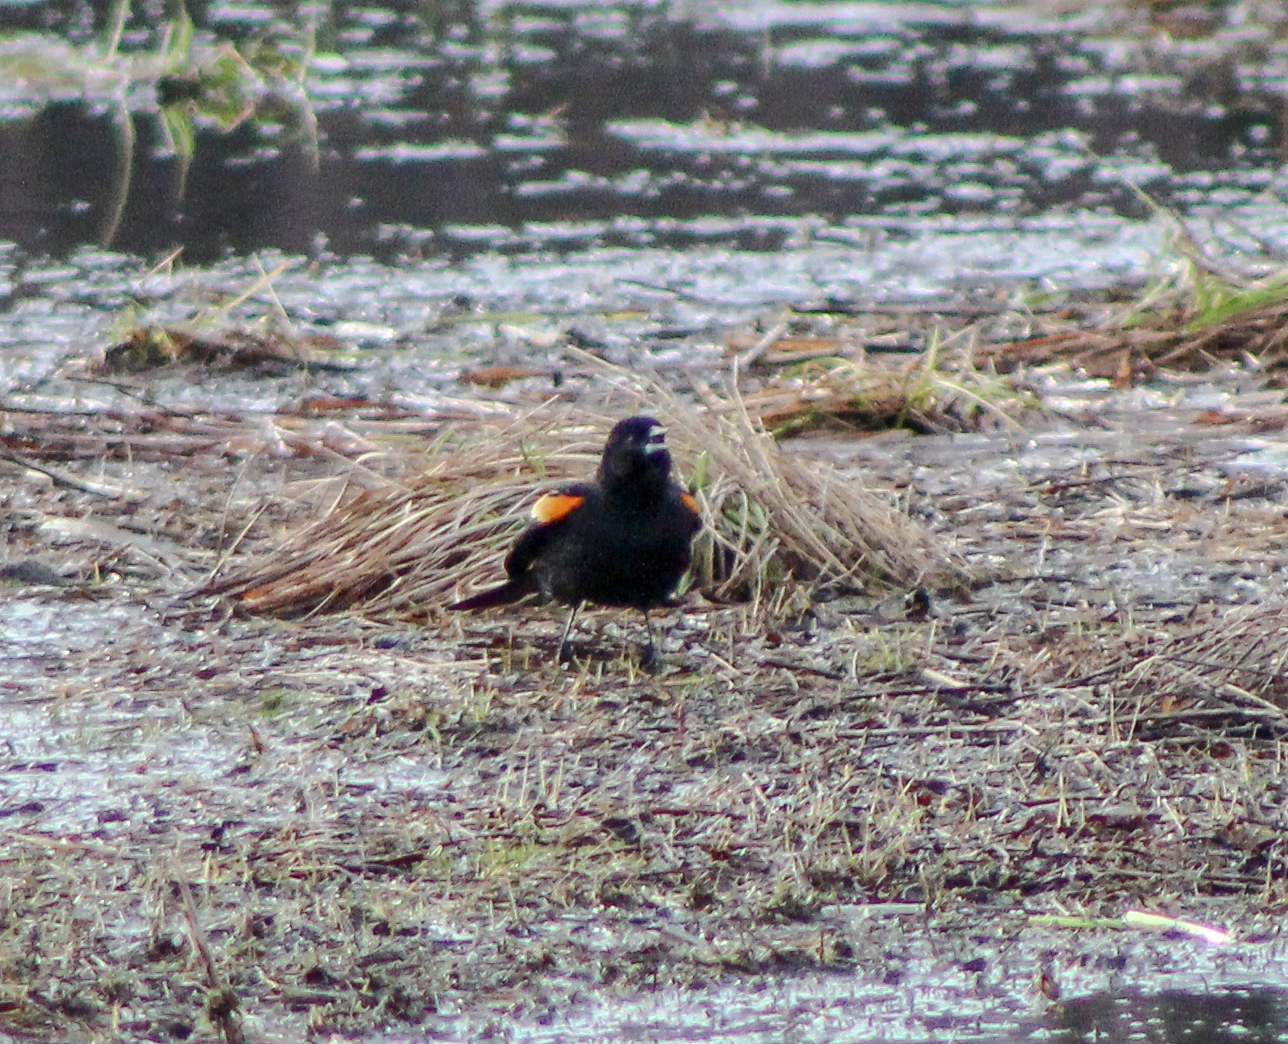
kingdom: Animalia
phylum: Chordata
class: Aves
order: Passeriformes
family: Icteridae
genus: Agelaius
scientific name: Agelaius phoeniceus
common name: Red-winged blackbird
